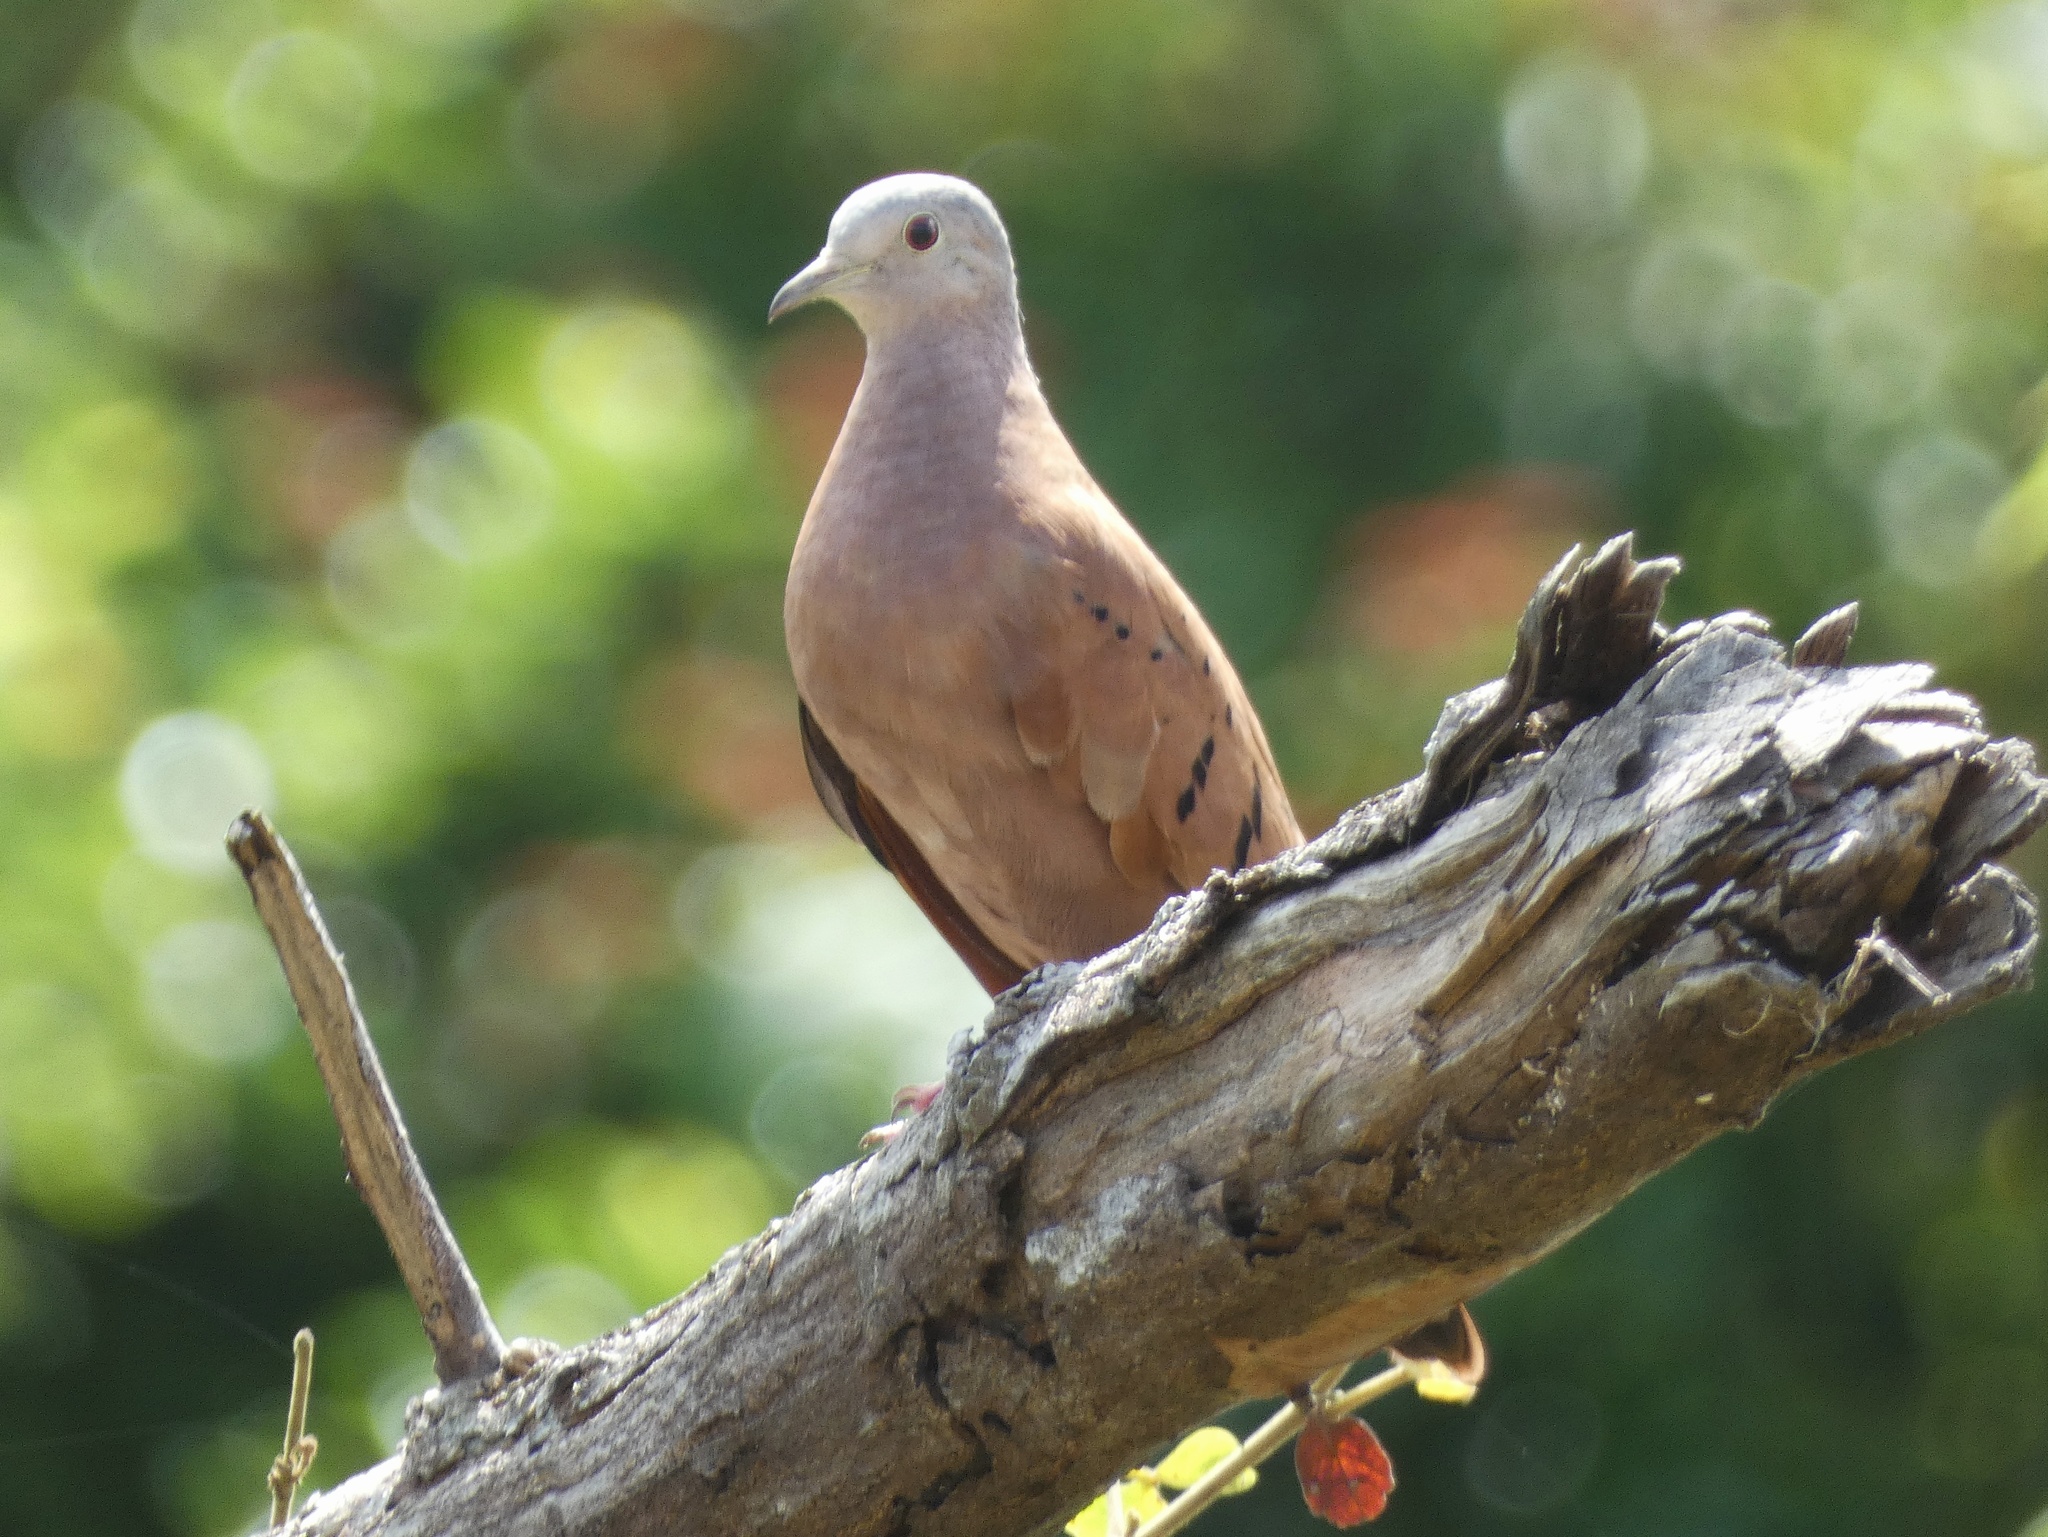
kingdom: Animalia
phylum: Chordata
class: Aves
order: Columbiformes
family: Columbidae
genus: Columbina
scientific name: Columbina talpacoti
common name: Ruddy ground dove
